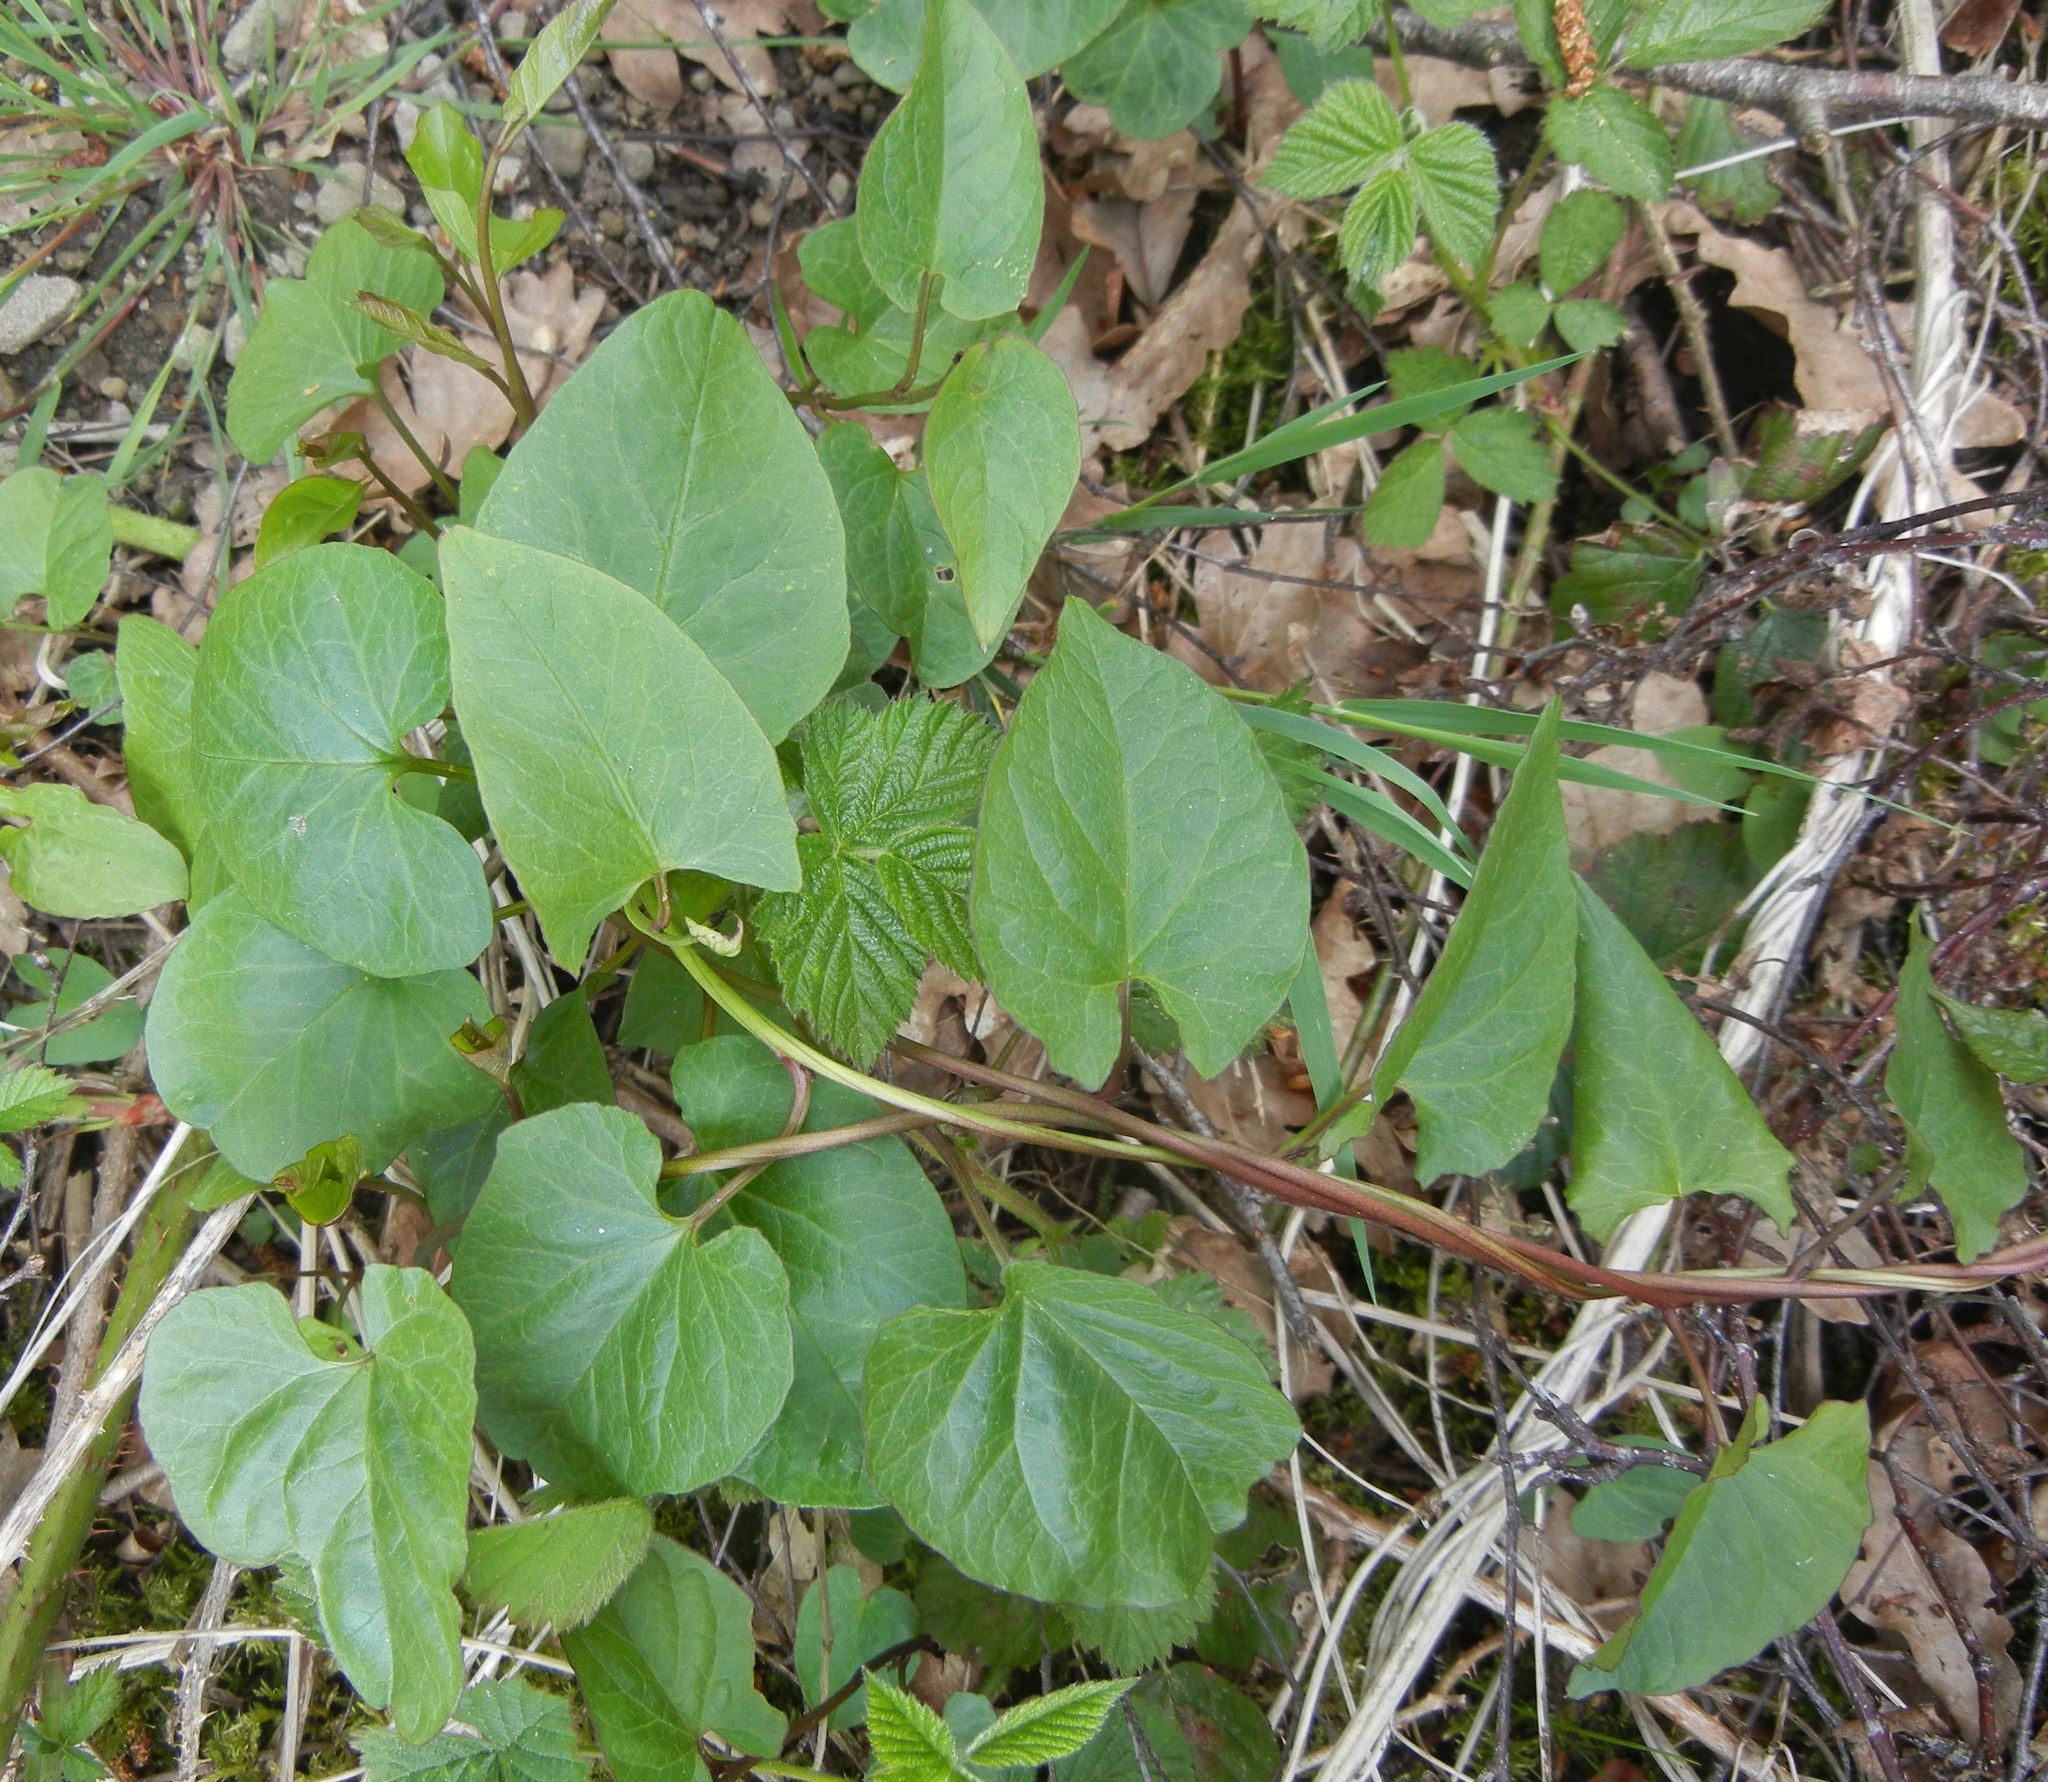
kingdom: Plantae
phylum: Tracheophyta
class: Magnoliopsida
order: Solanales
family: Convolvulaceae
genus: Calystegia
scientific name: Calystegia
